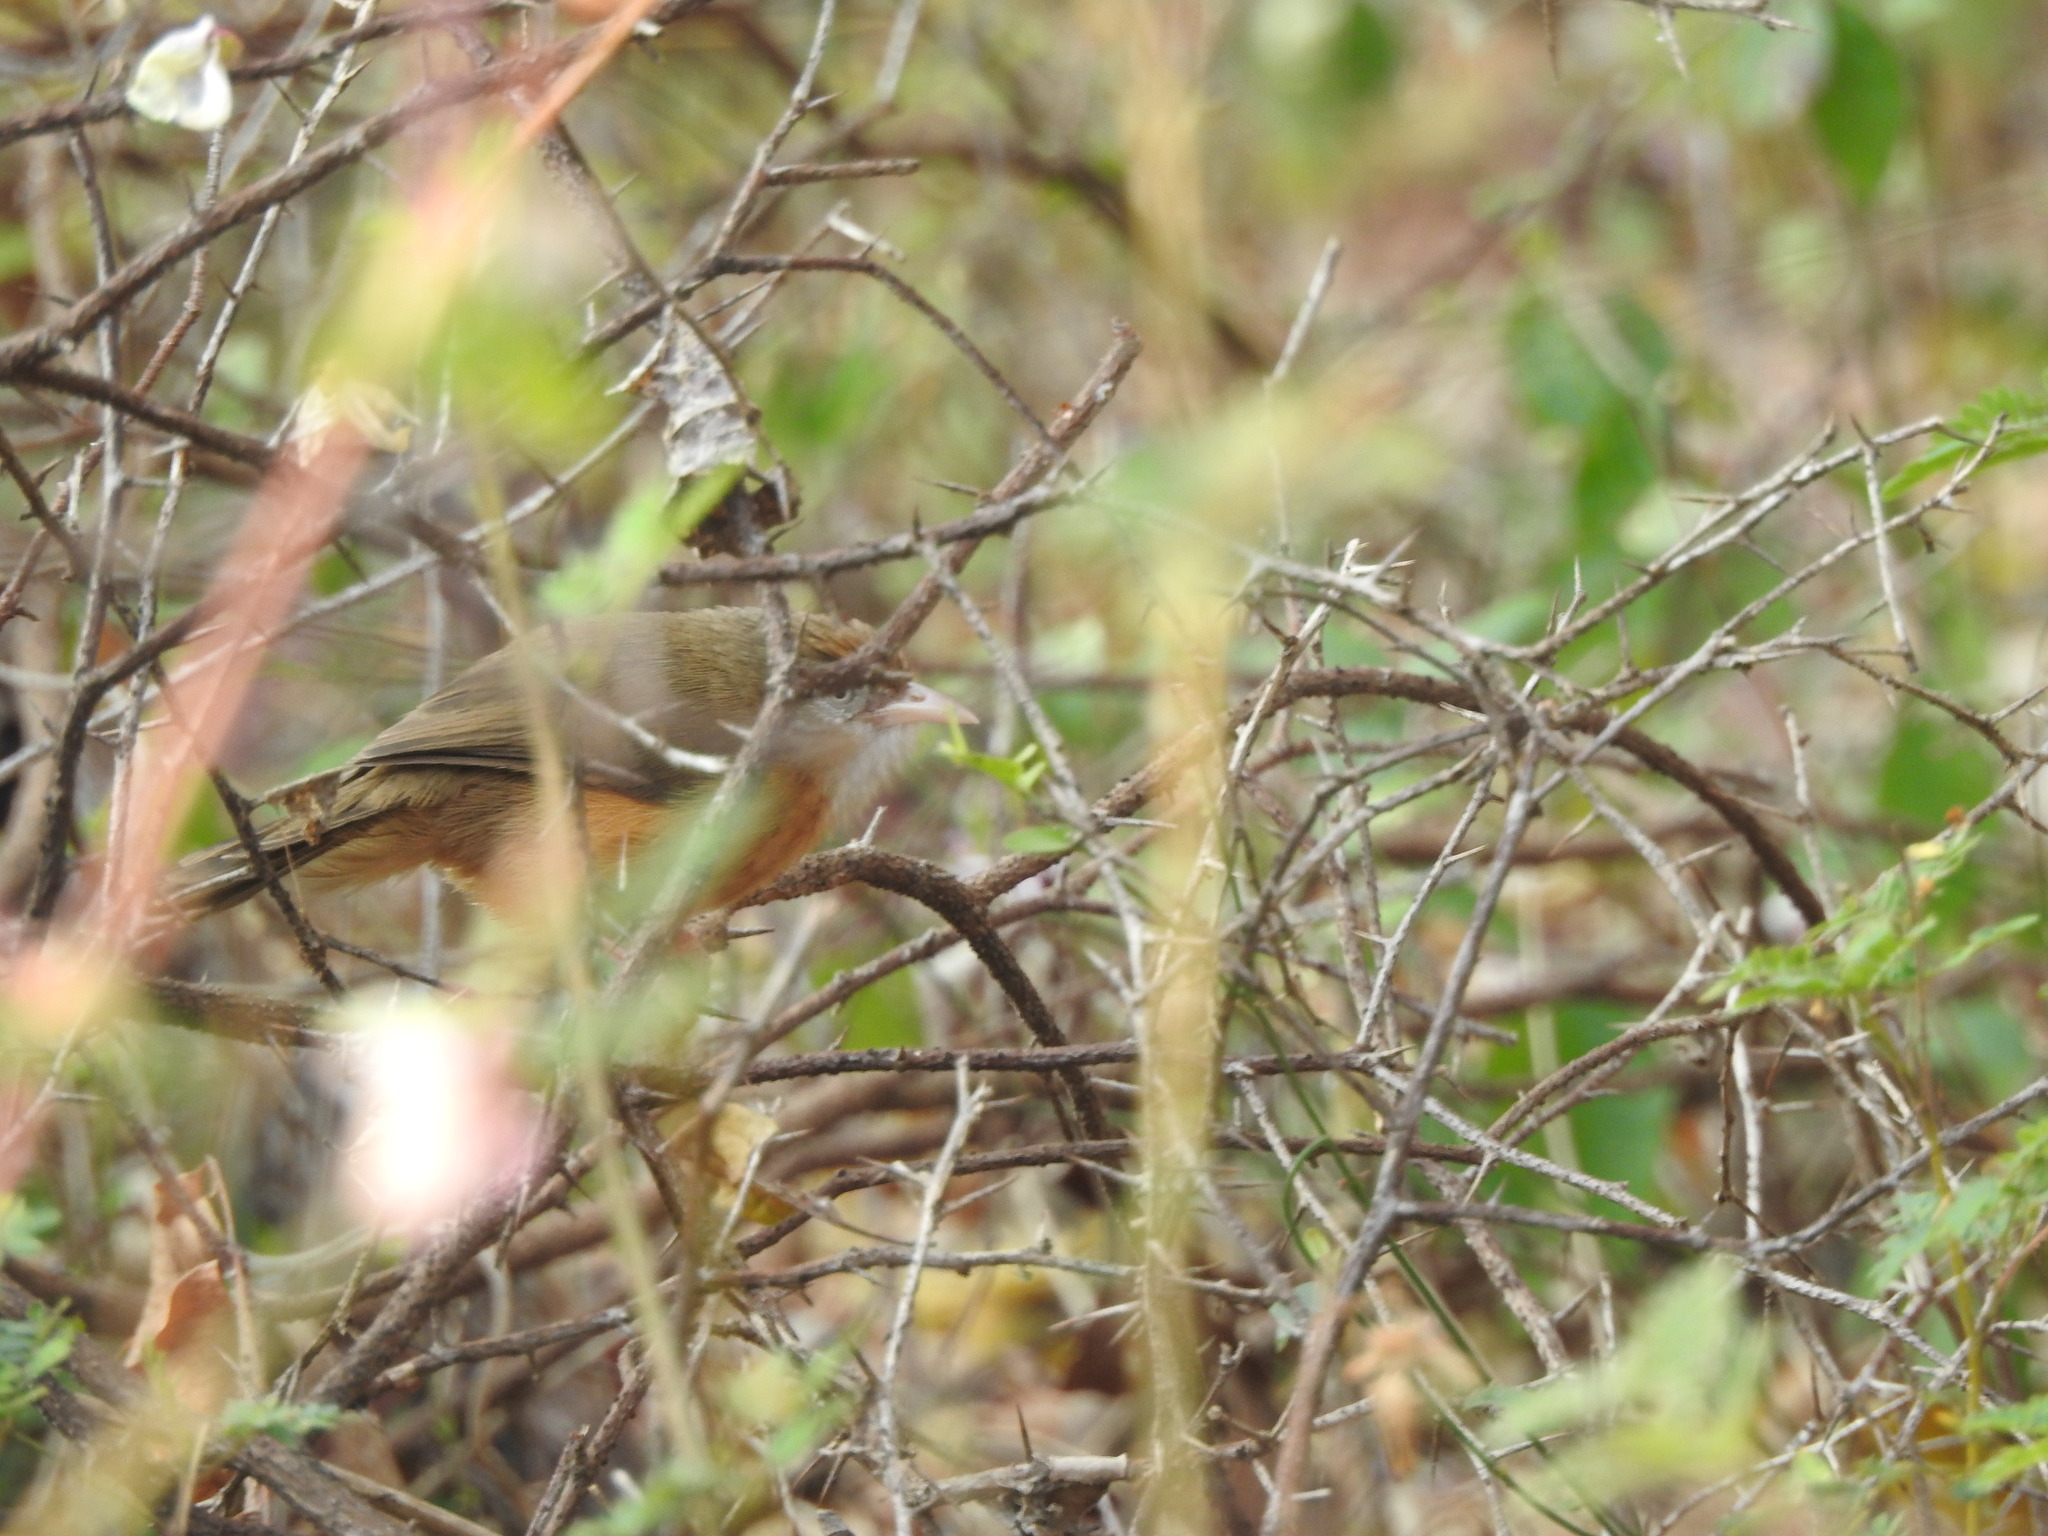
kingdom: Animalia
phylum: Chordata
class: Aves
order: Passeriformes
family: Timaliidae
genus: Dumetia
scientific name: Dumetia hyperythra
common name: Tawny-bellied babbler
